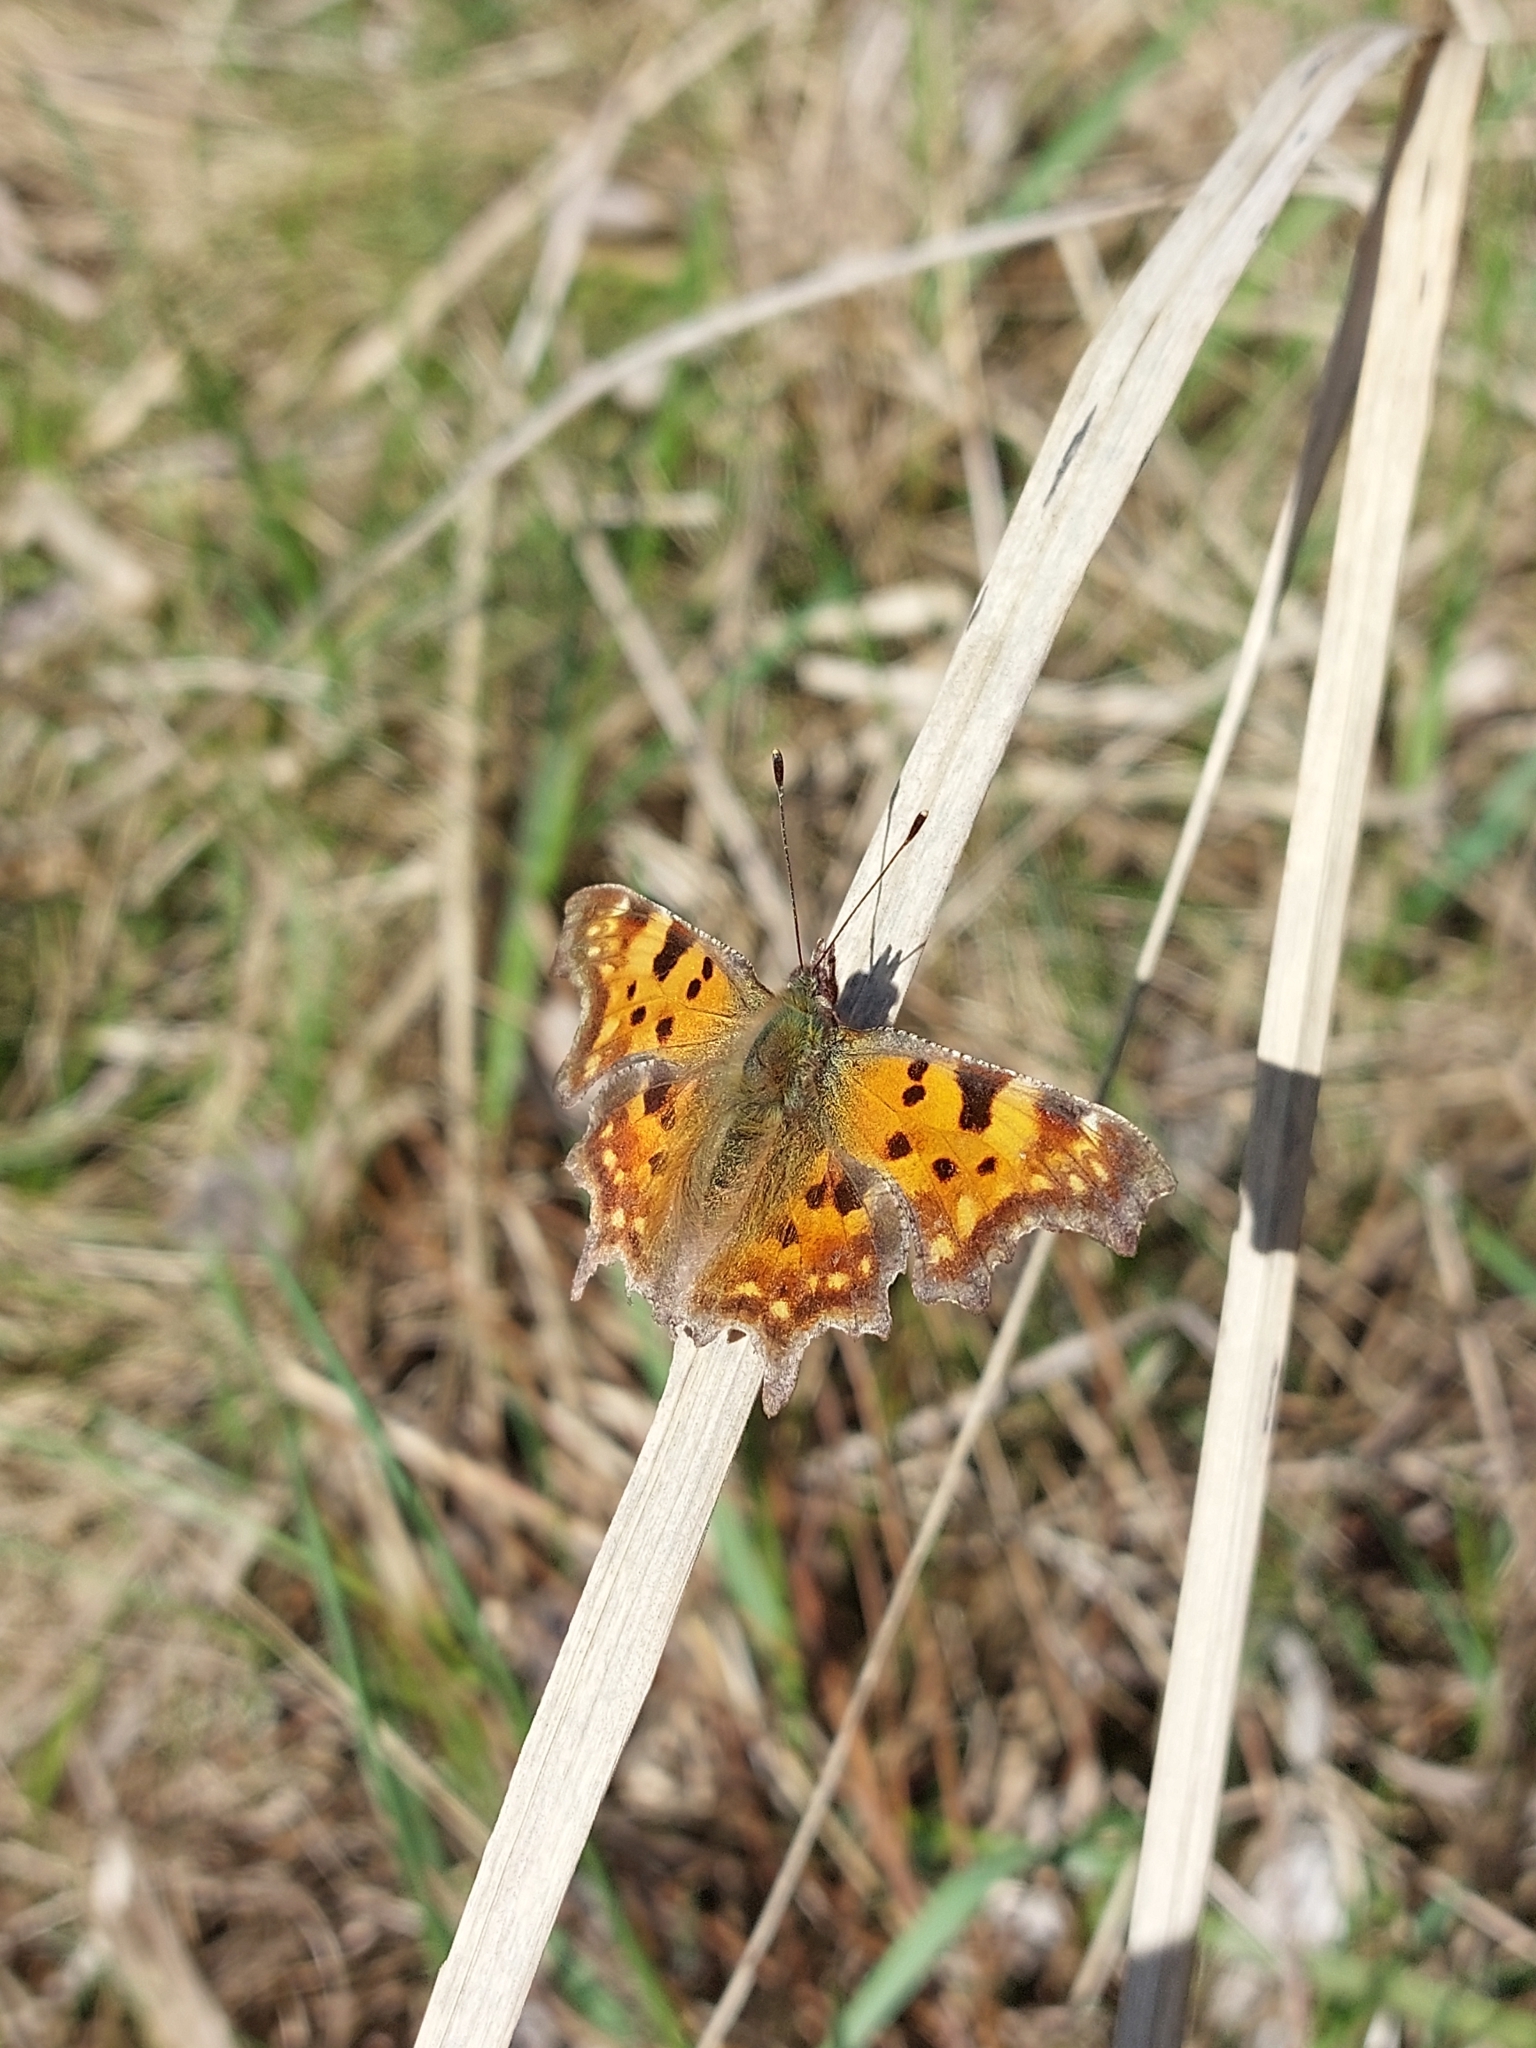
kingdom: Animalia
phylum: Arthropoda
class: Insecta
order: Lepidoptera
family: Nymphalidae
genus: Polygonia
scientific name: Polygonia c-album
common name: Comma
